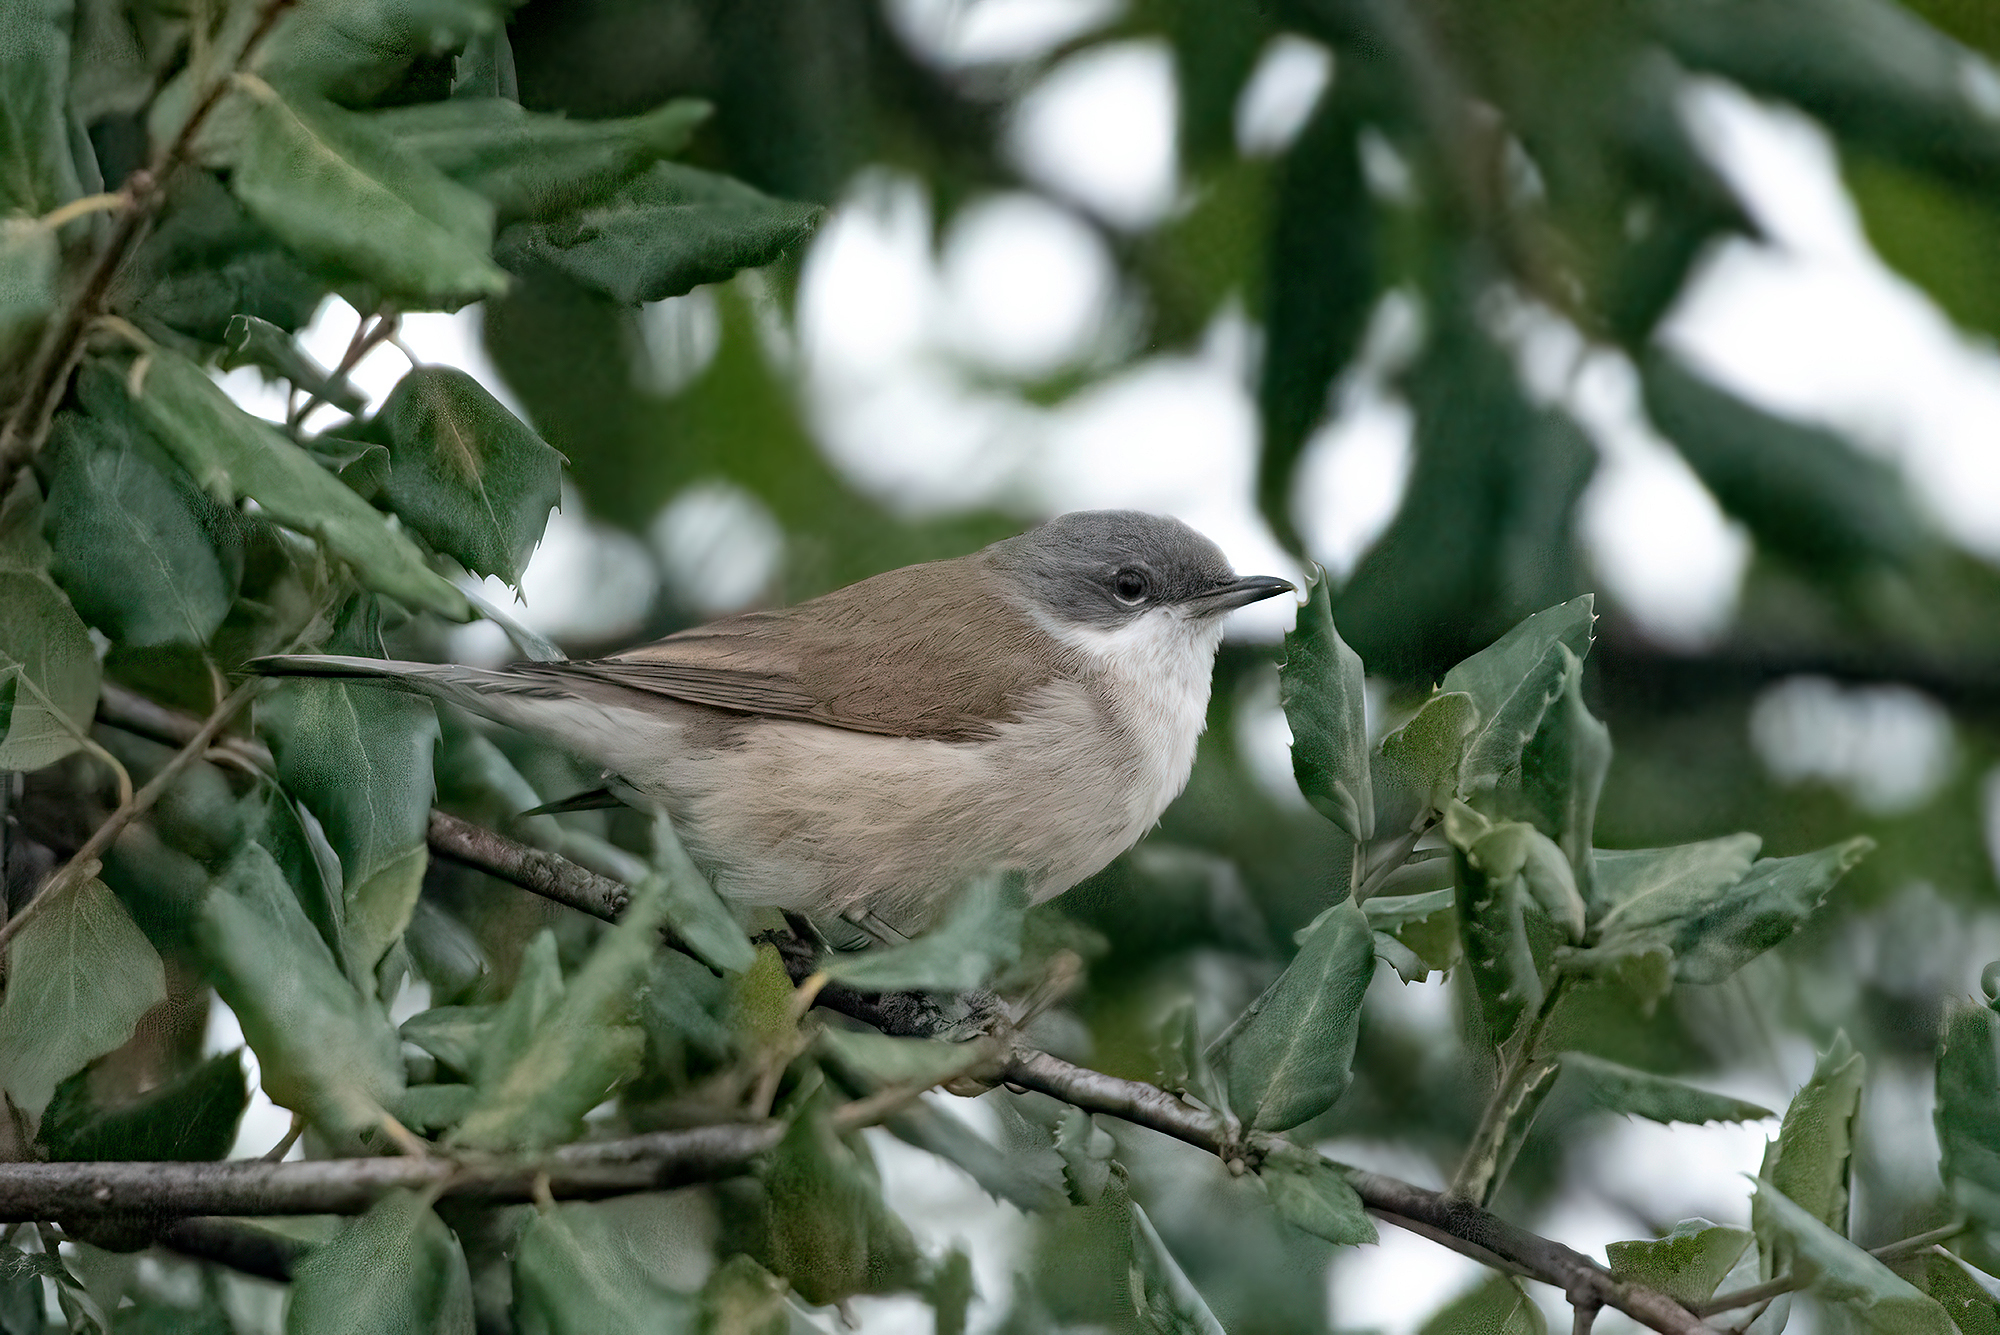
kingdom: Animalia
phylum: Chordata
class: Aves
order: Passeriformes
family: Sylviidae
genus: Sylvia
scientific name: Sylvia curruca
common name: Lesser whitethroat
